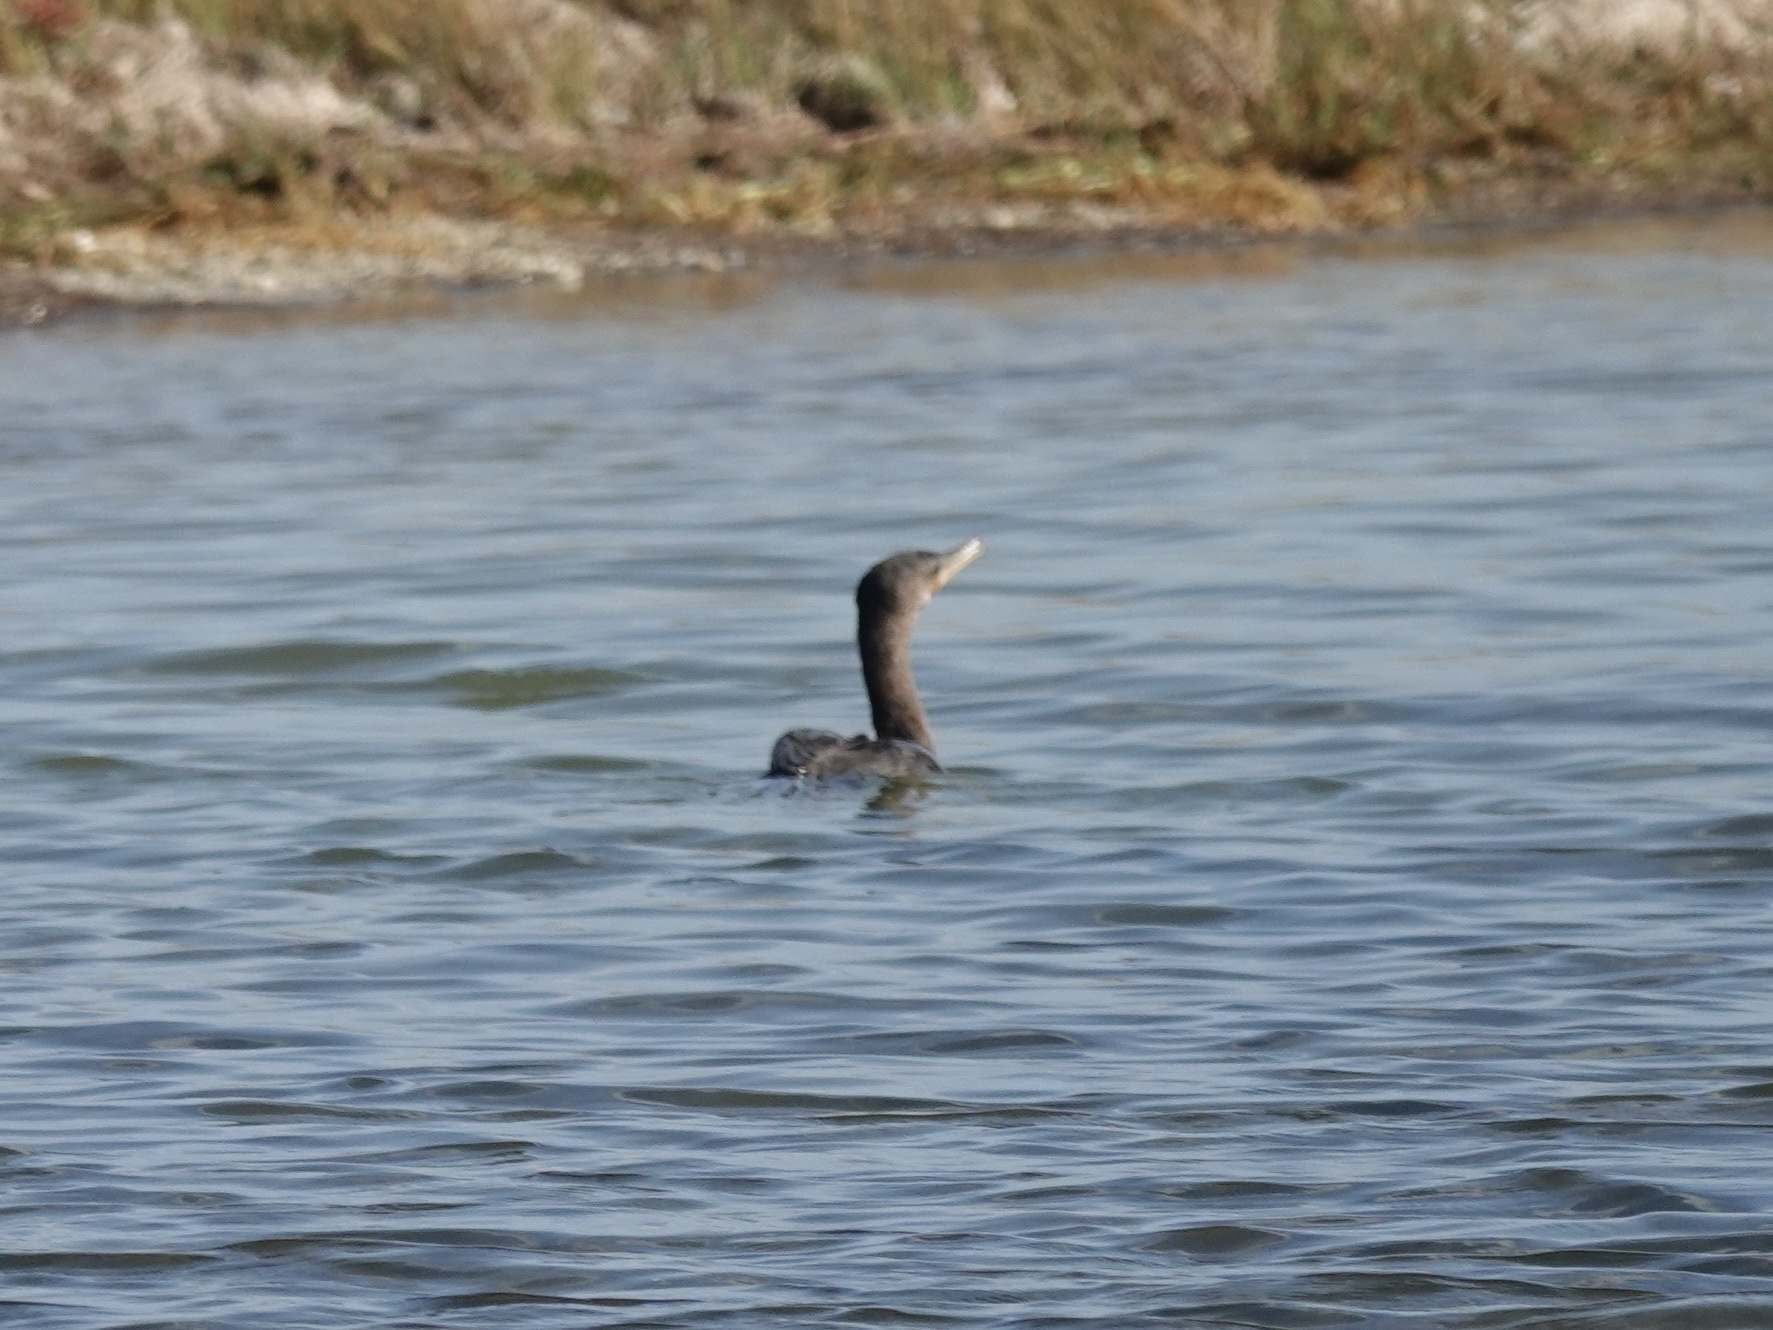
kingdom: Animalia
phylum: Chordata
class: Aves
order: Suliformes
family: Phalacrocoracidae
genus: Phalacrocorax
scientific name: Phalacrocorax brasilianus
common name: Neotropic cormorant
